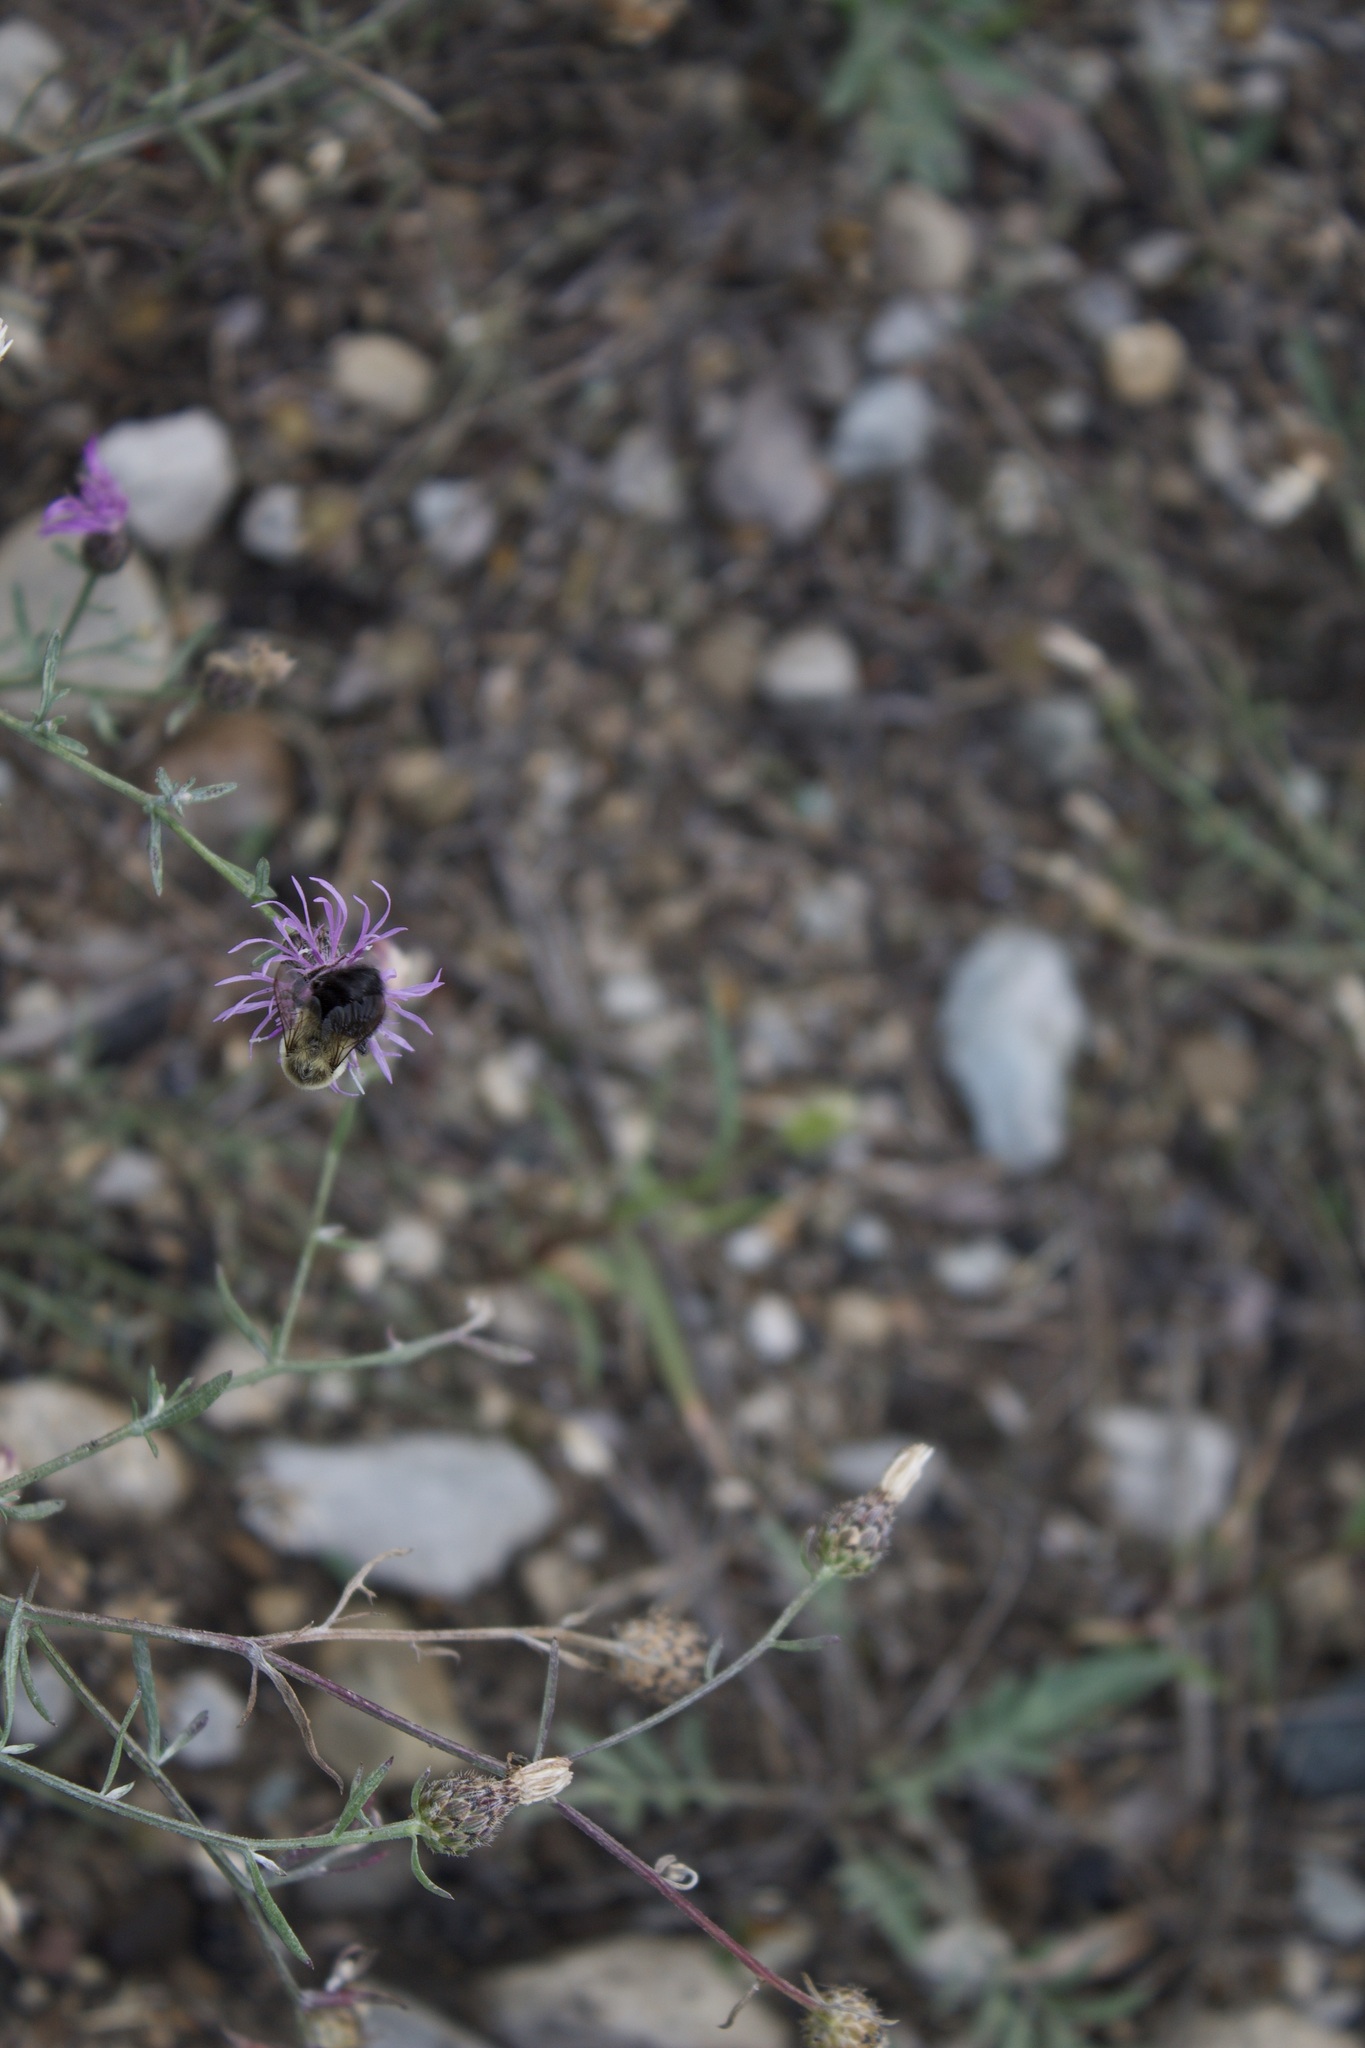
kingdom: Animalia
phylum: Arthropoda
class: Insecta
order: Hymenoptera
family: Apidae
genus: Bombus
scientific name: Bombus impatiens
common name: Common eastern bumble bee
